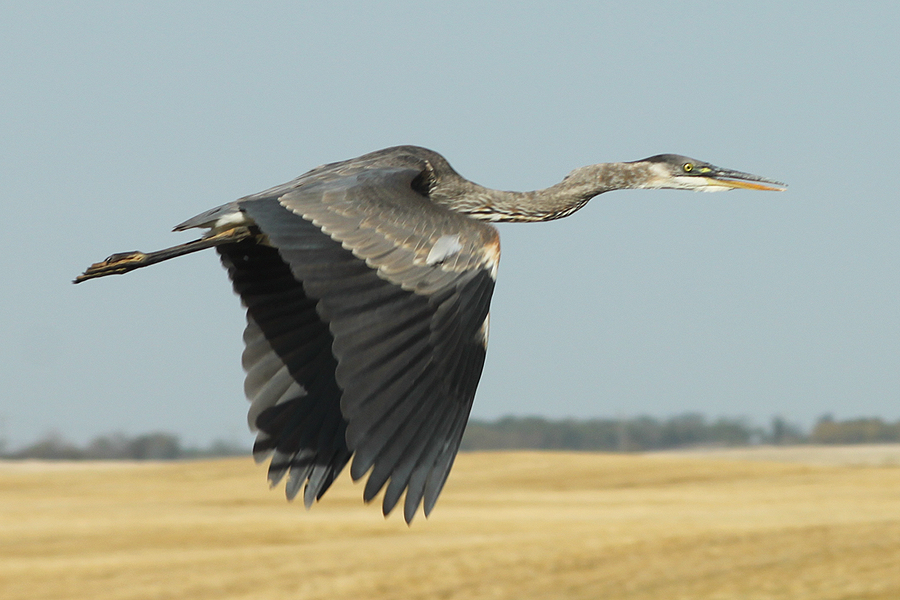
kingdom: Animalia
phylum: Chordata
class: Aves
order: Pelecaniformes
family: Ardeidae
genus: Ardea
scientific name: Ardea herodias
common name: Great blue heron
